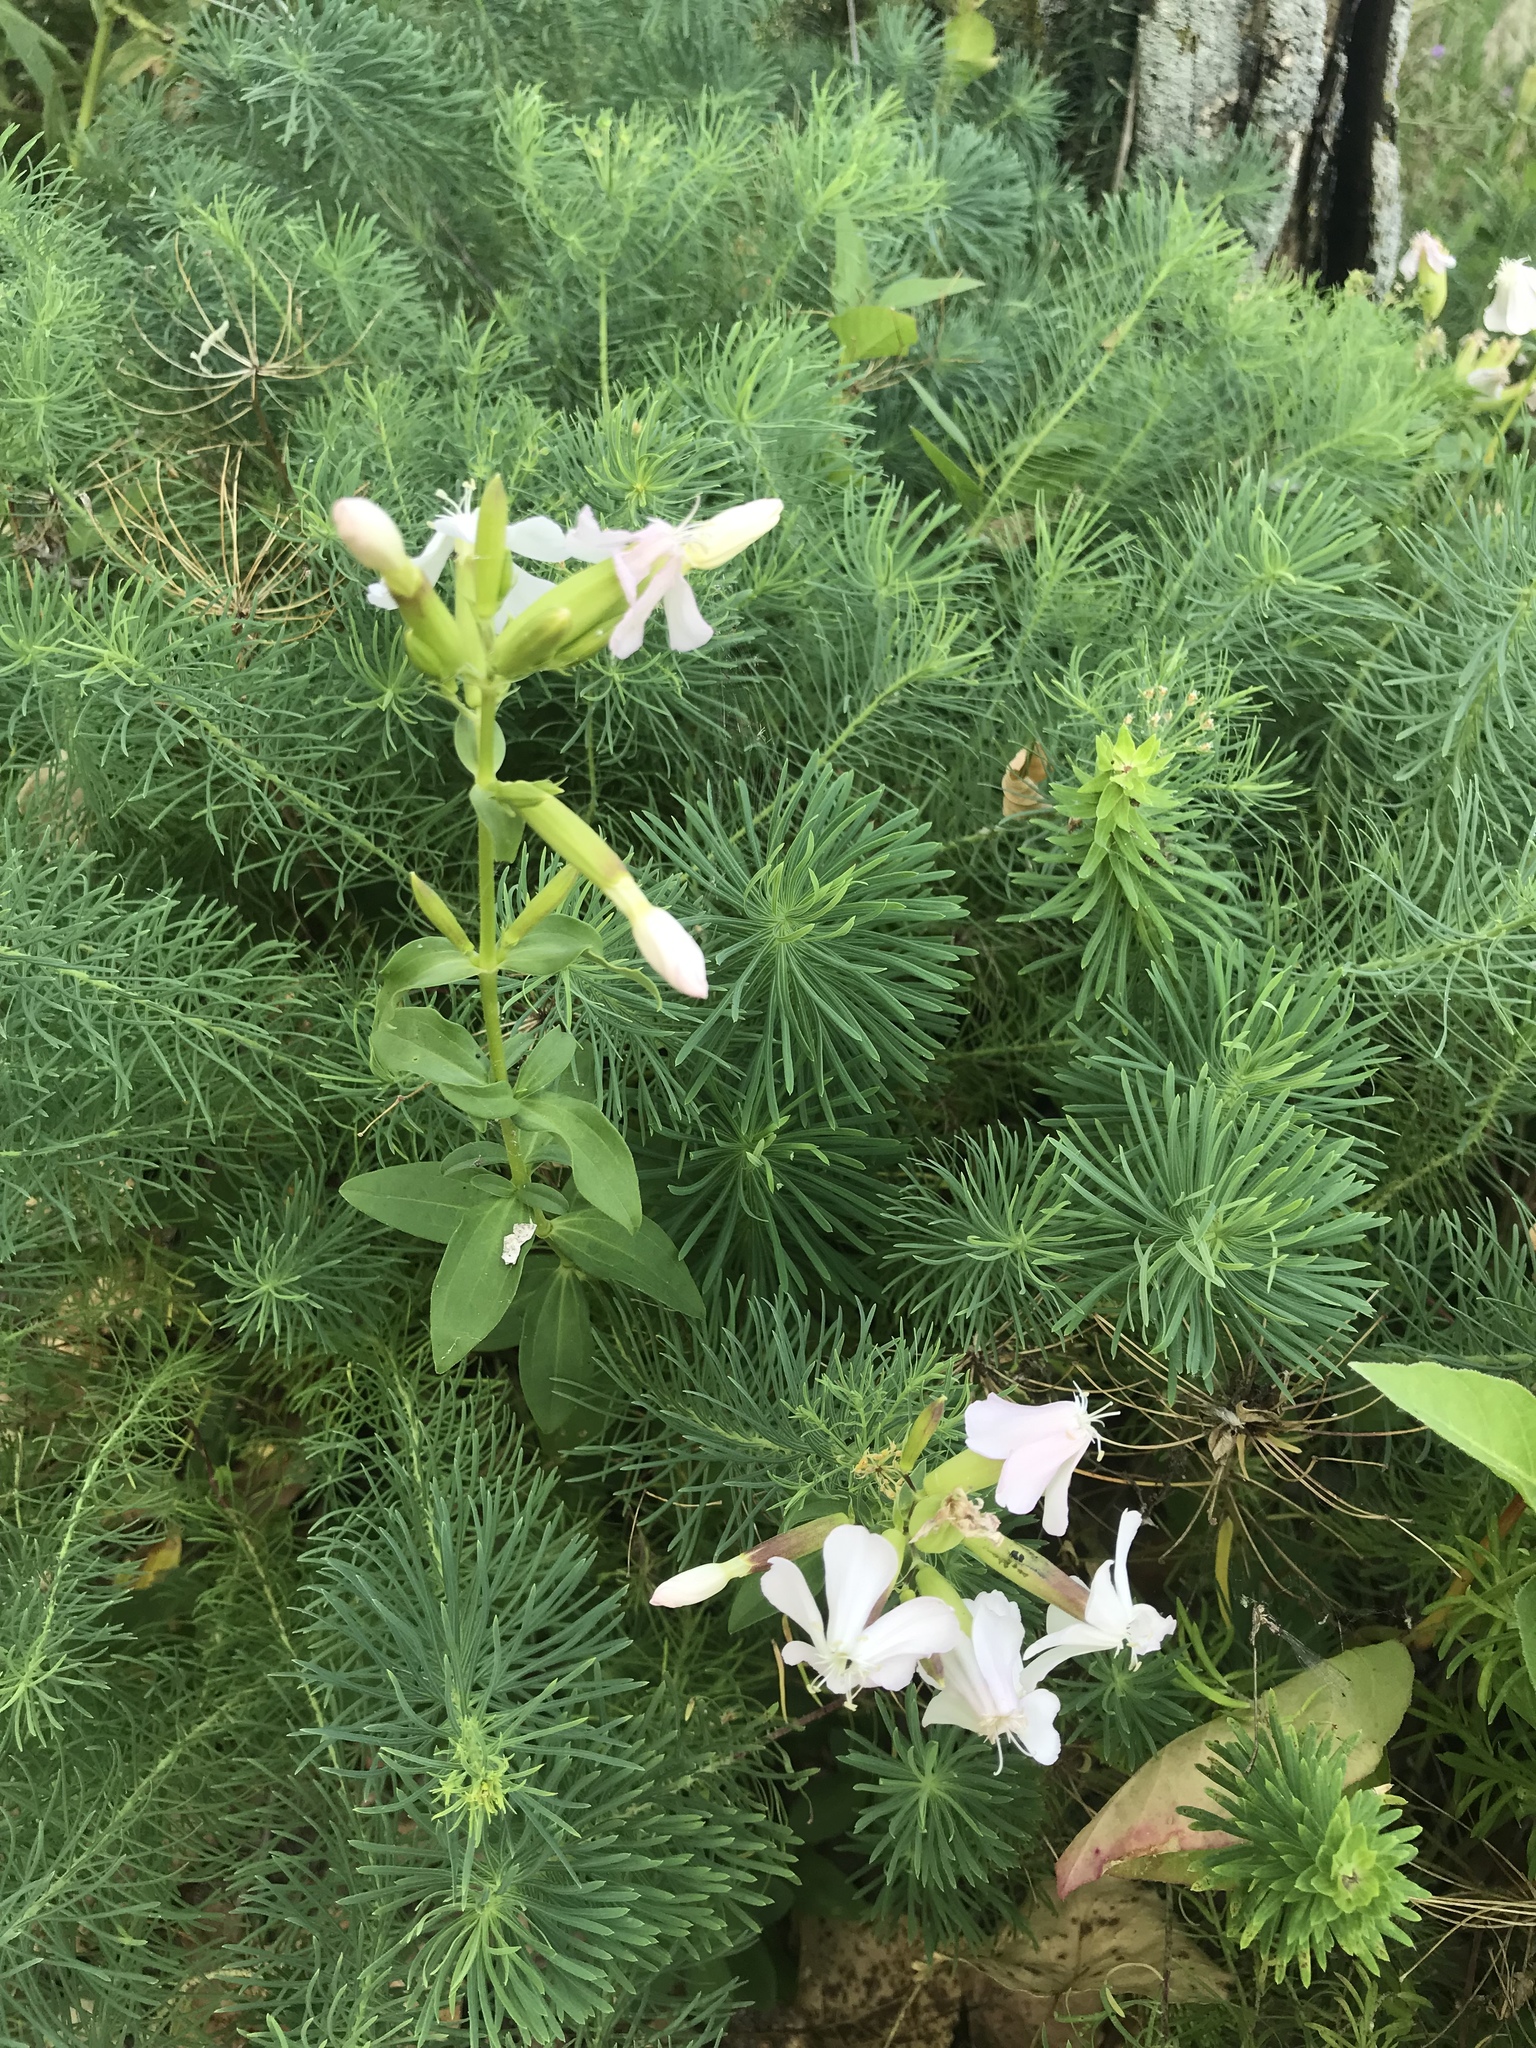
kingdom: Plantae
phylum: Tracheophyta
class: Magnoliopsida
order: Caryophyllales
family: Caryophyllaceae
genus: Saponaria
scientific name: Saponaria officinalis
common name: Soapwort
